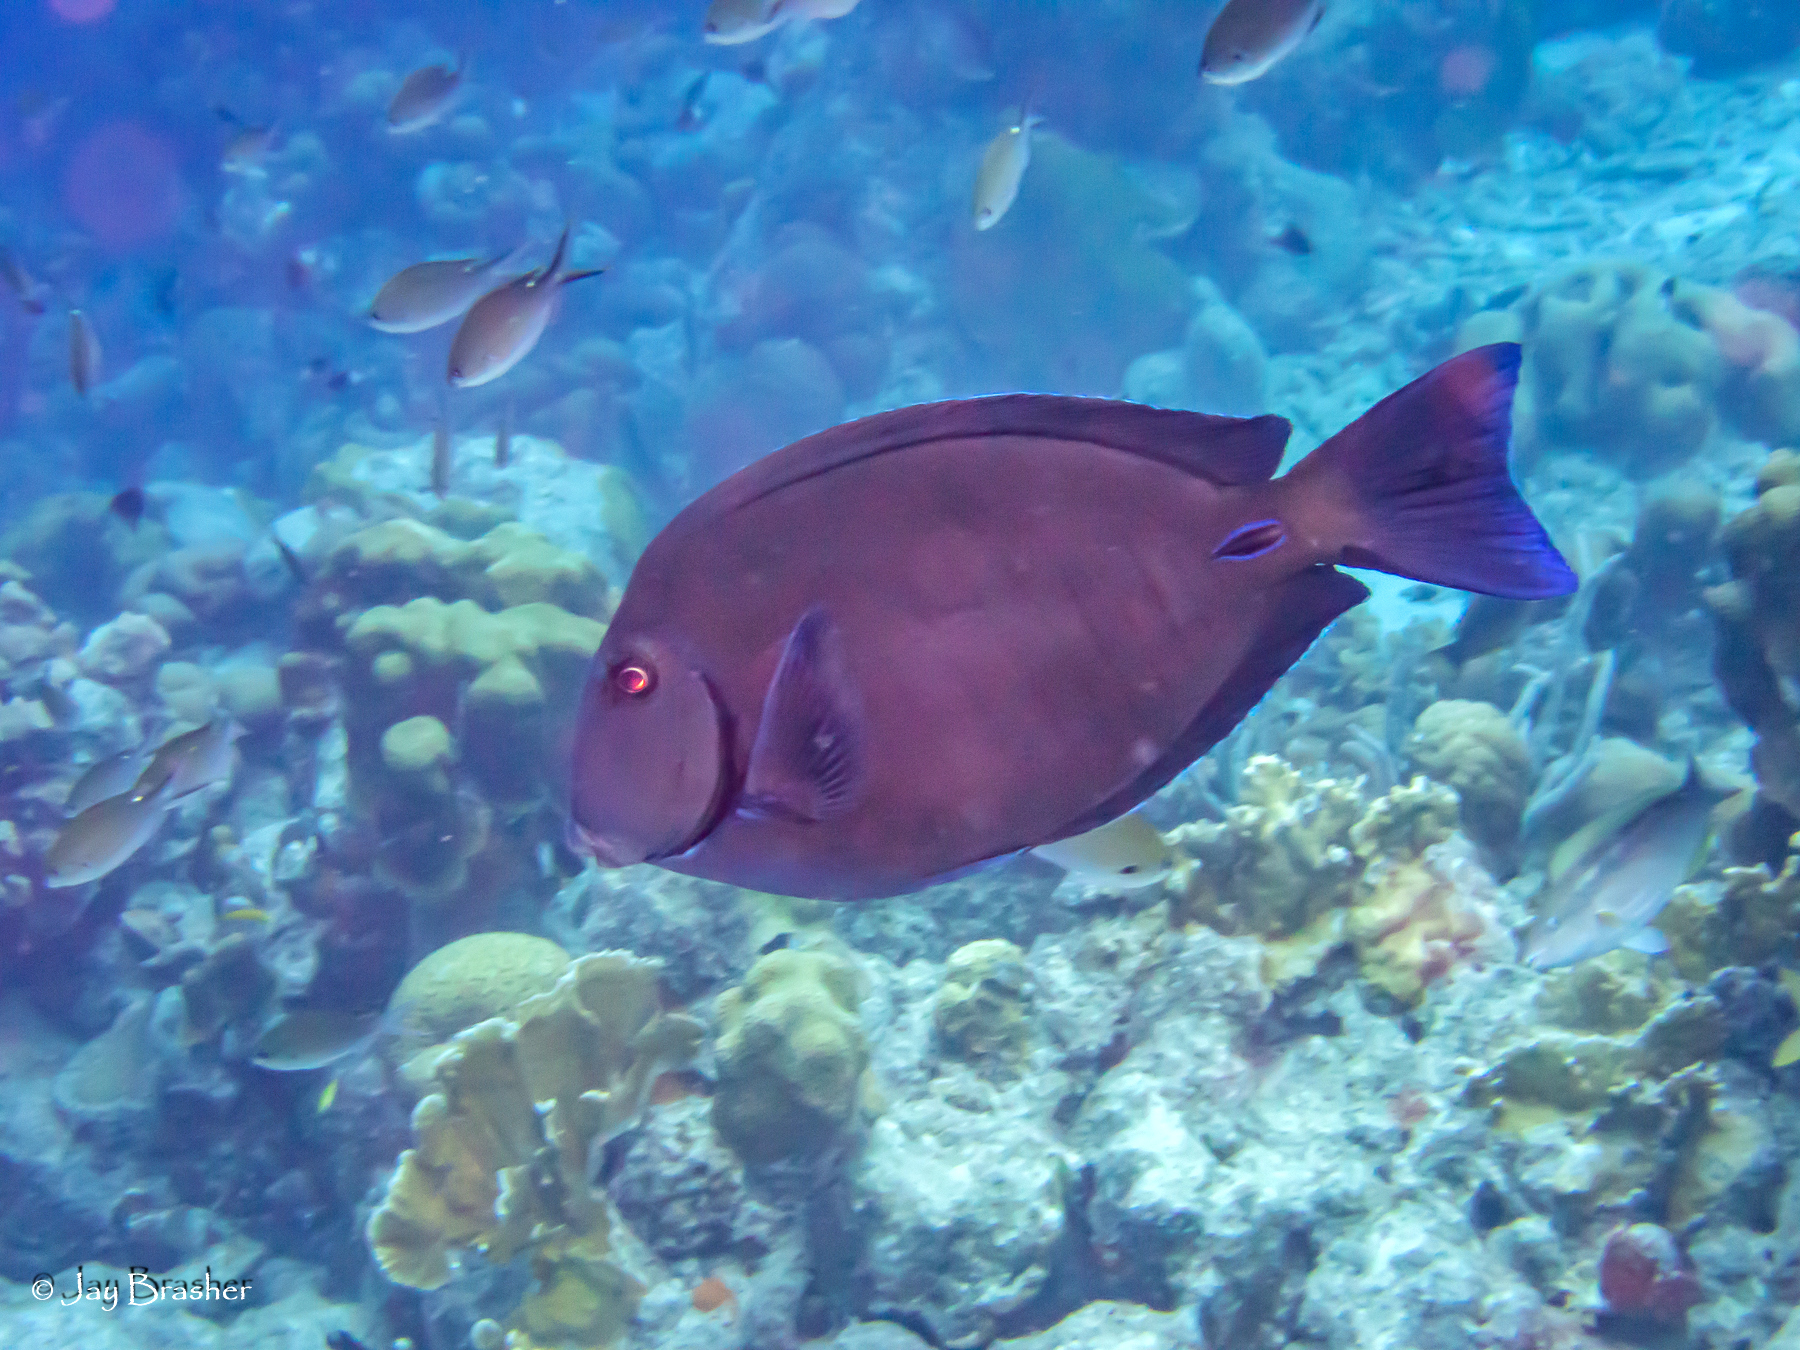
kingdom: Animalia
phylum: Chordata
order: Perciformes
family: Acanthuridae
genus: Acanthurus
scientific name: Acanthurus coeruleus
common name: Blue tang
